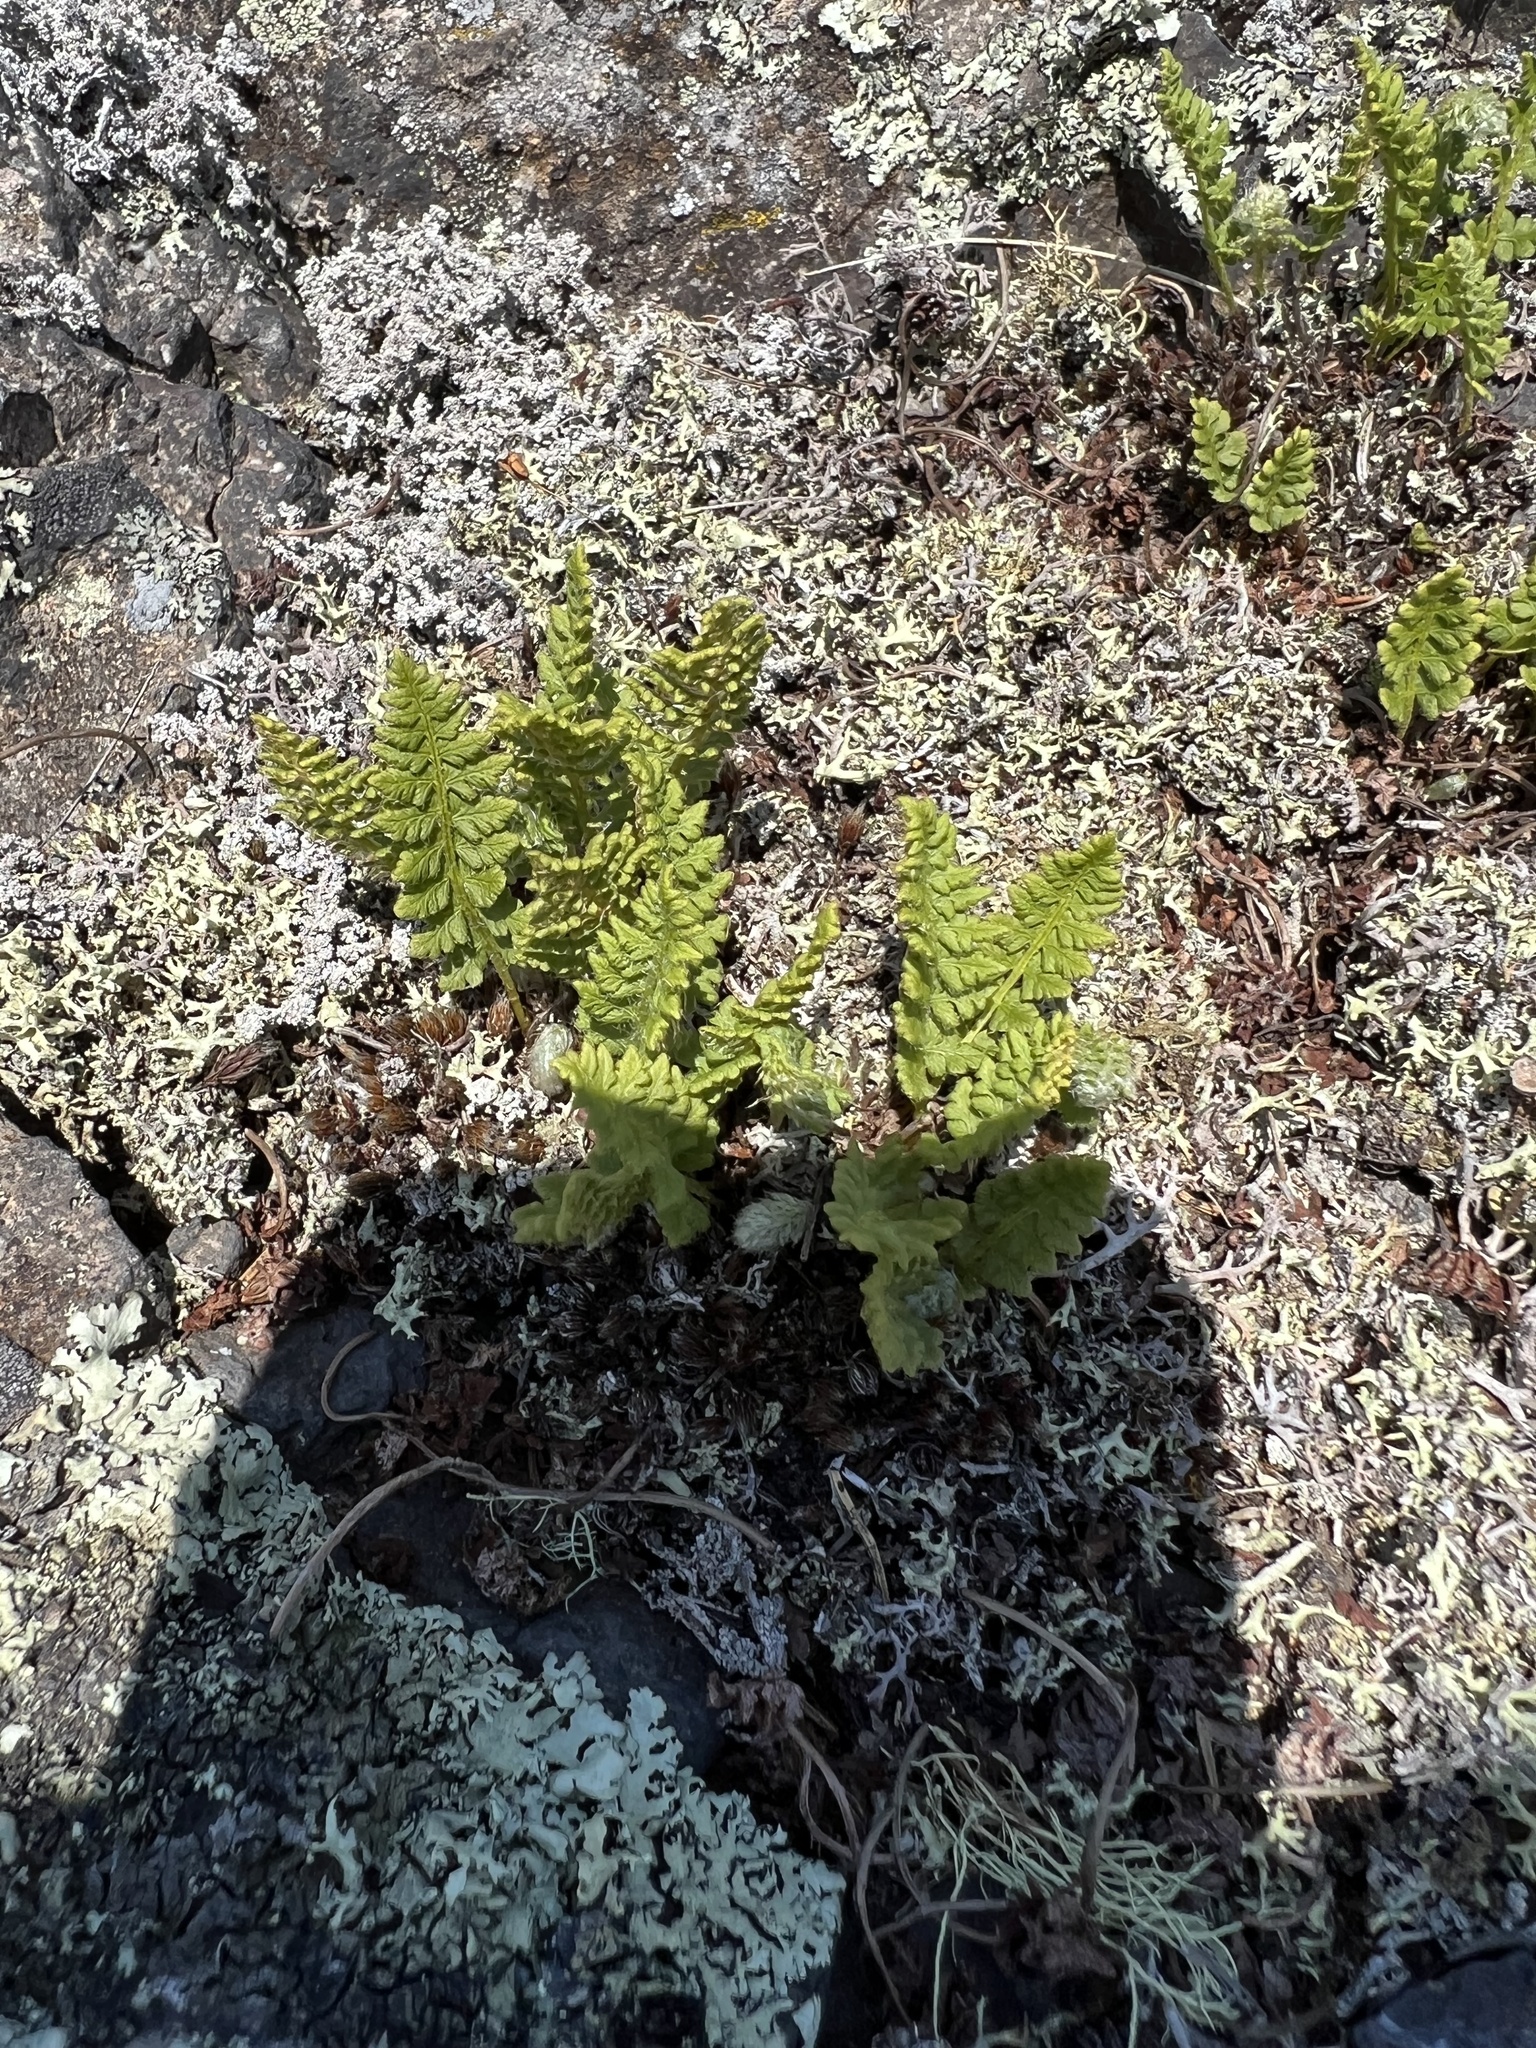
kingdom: Plantae
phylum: Tracheophyta
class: Polypodiopsida
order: Polypodiales
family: Woodsiaceae
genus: Woodsia
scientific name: Woodsia ilvensis
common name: Fragrant woodsia
